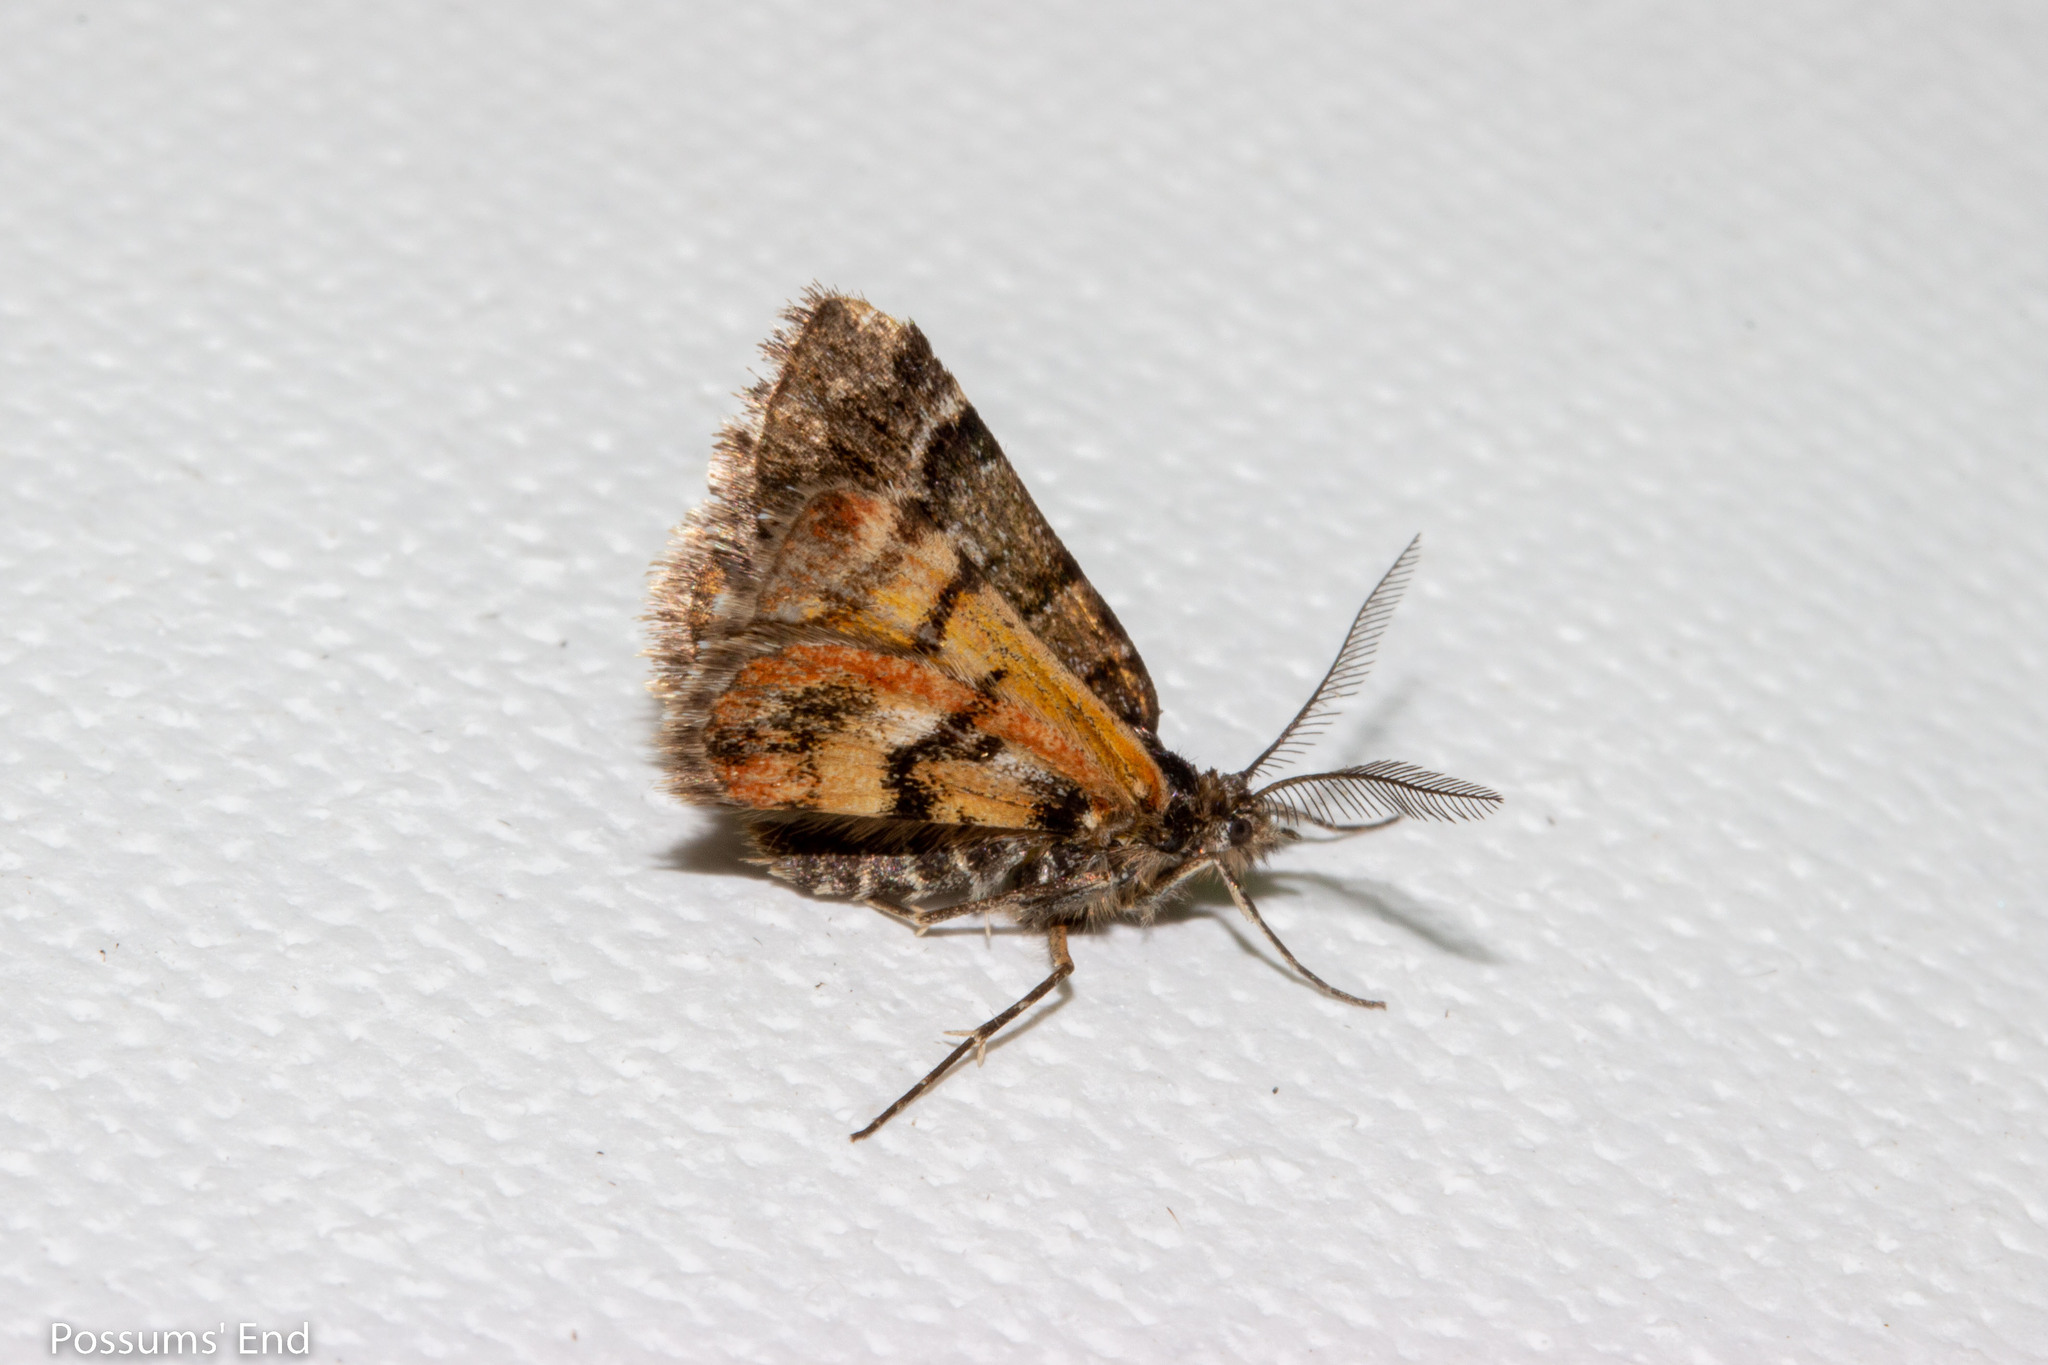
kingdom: Animalia
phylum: Arthropoda
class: Insecta
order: Lepidoptera
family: Geometridae
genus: Arctesthes
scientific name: Arctesthes catapyrrha
